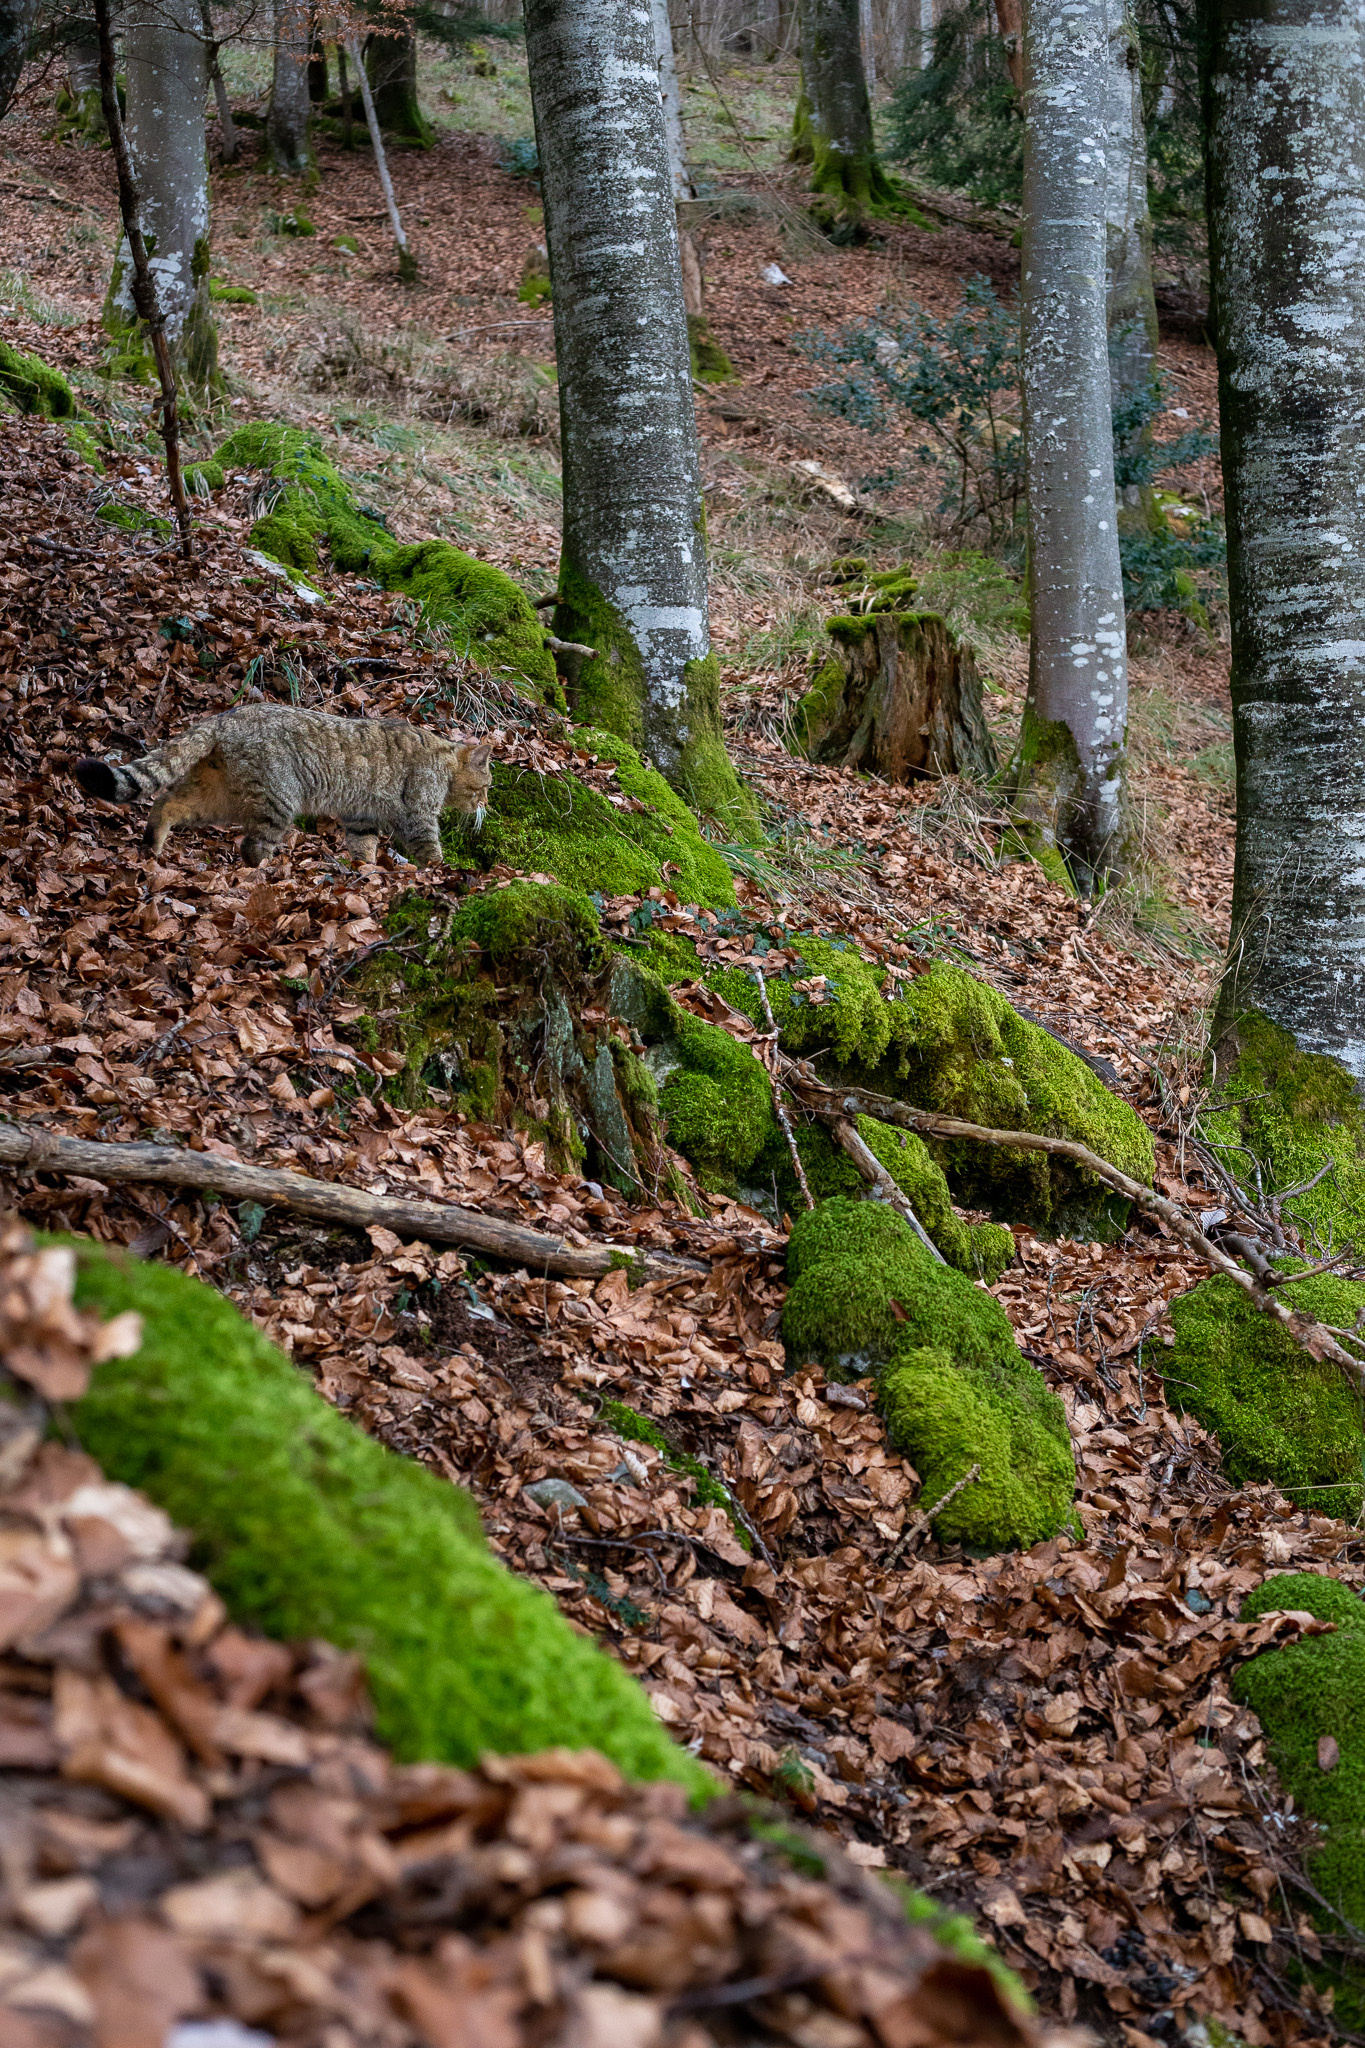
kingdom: Animalia
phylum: Chordata
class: Mammalia
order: Carnivora
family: Felidae
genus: Felis
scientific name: Felis silvestris
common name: Wildcat
